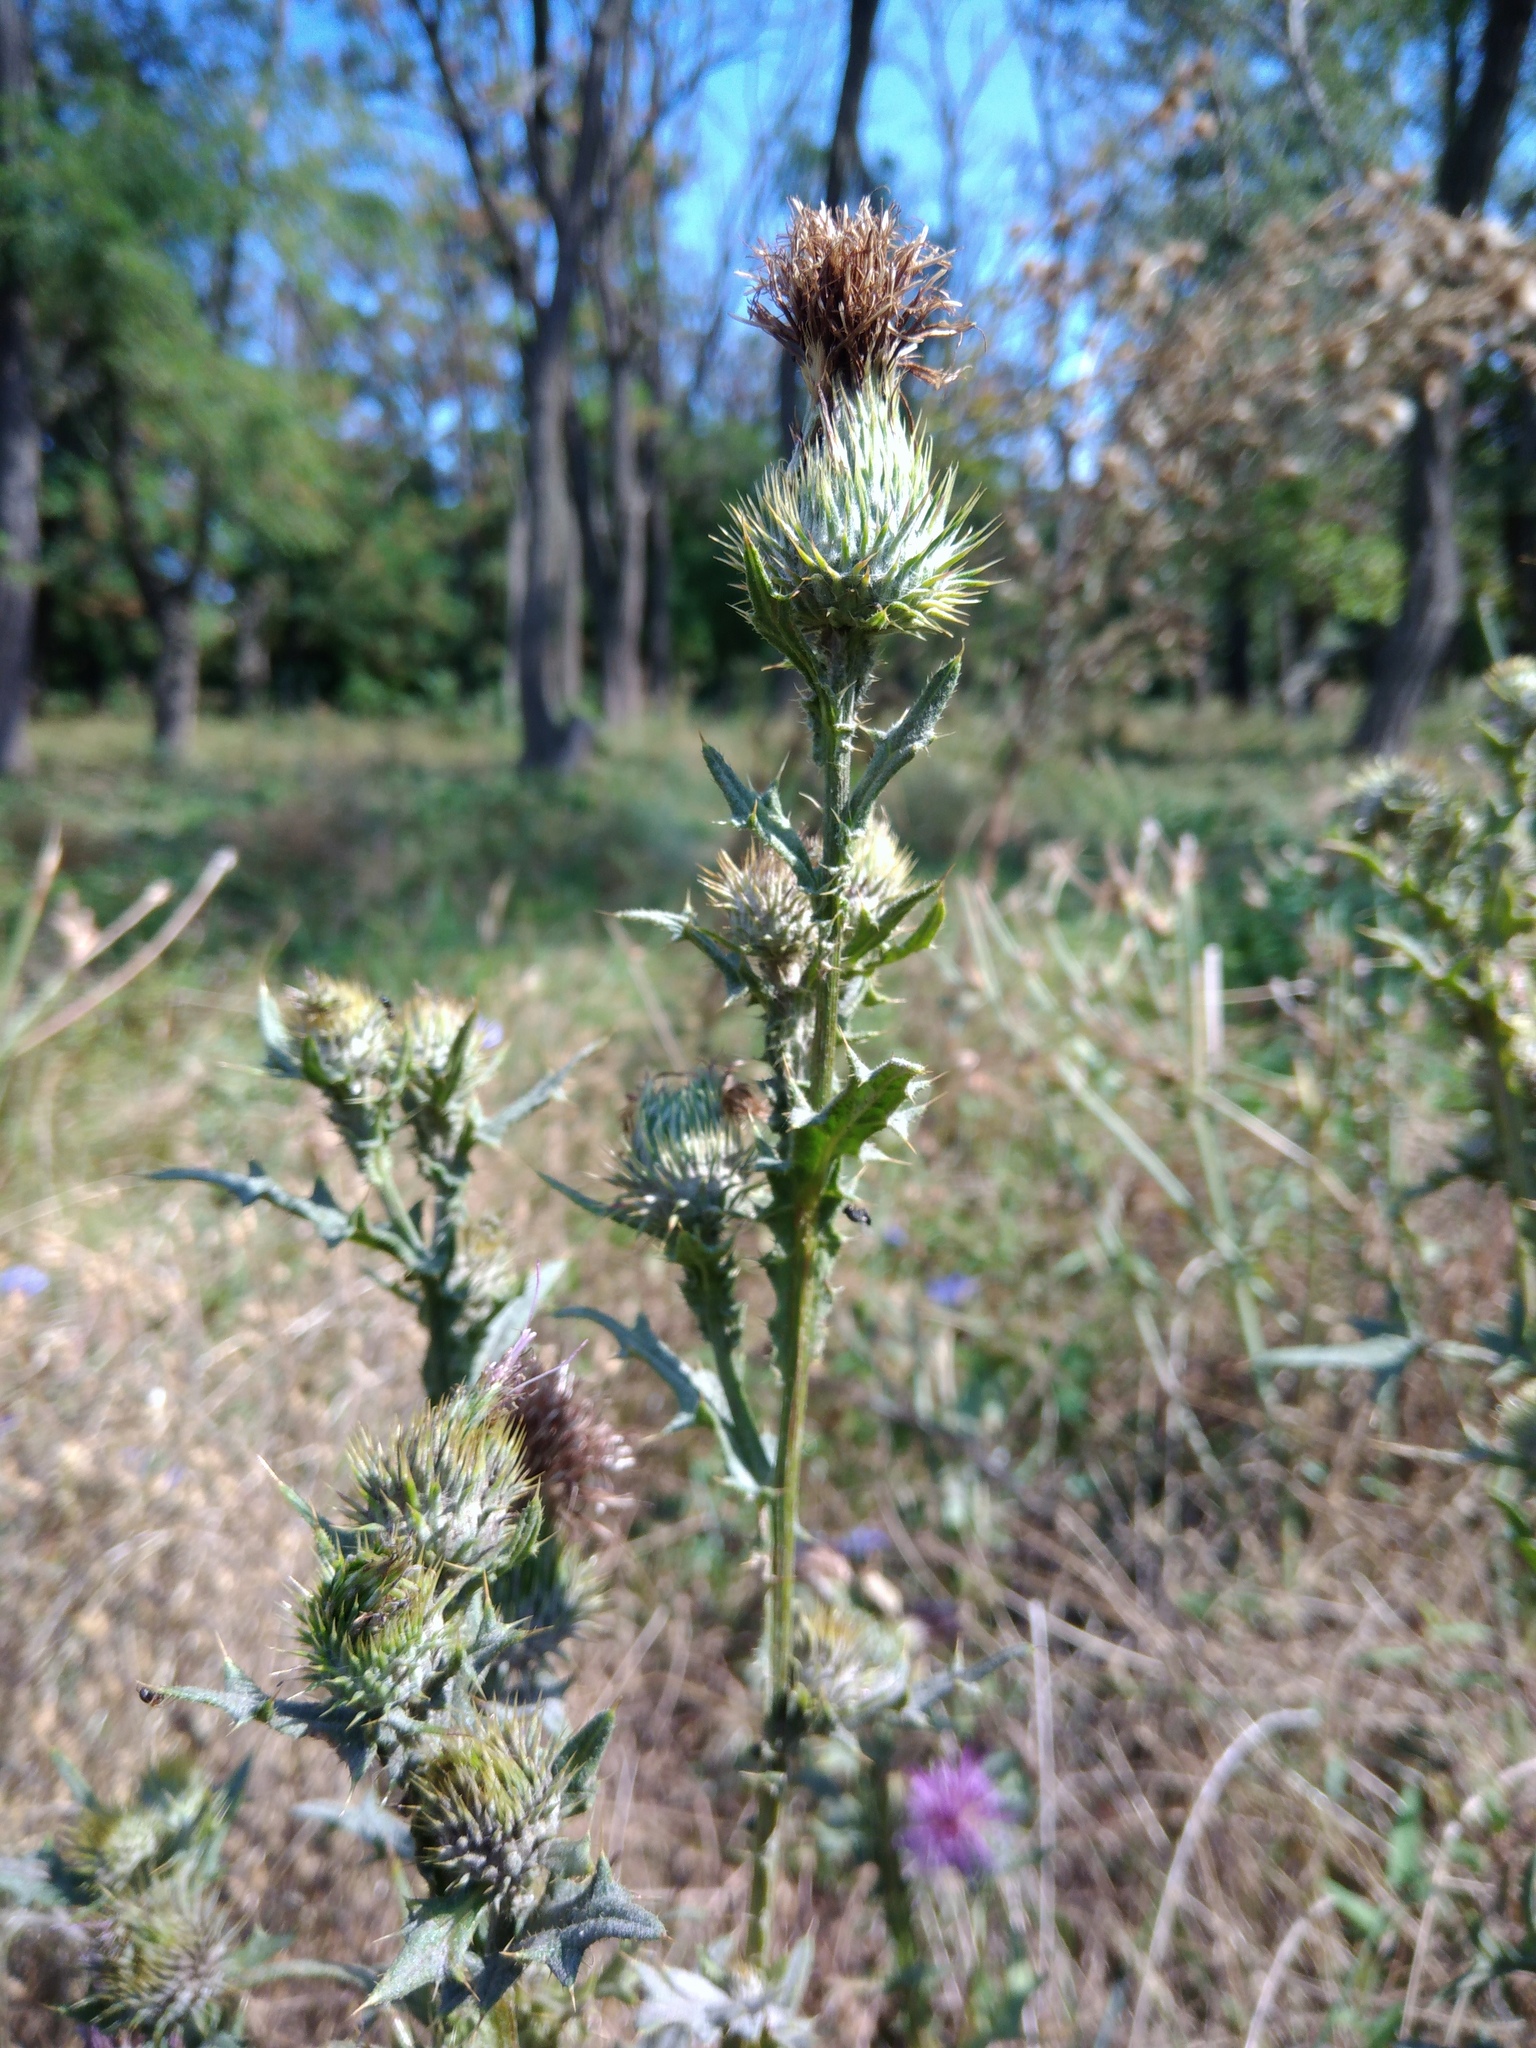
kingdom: Plantae
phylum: Tracheophyta
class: Magnoliopsida
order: Asterales
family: Asteraceae
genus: Cirsium
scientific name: Cirsium vulgare
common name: Bull thistle
